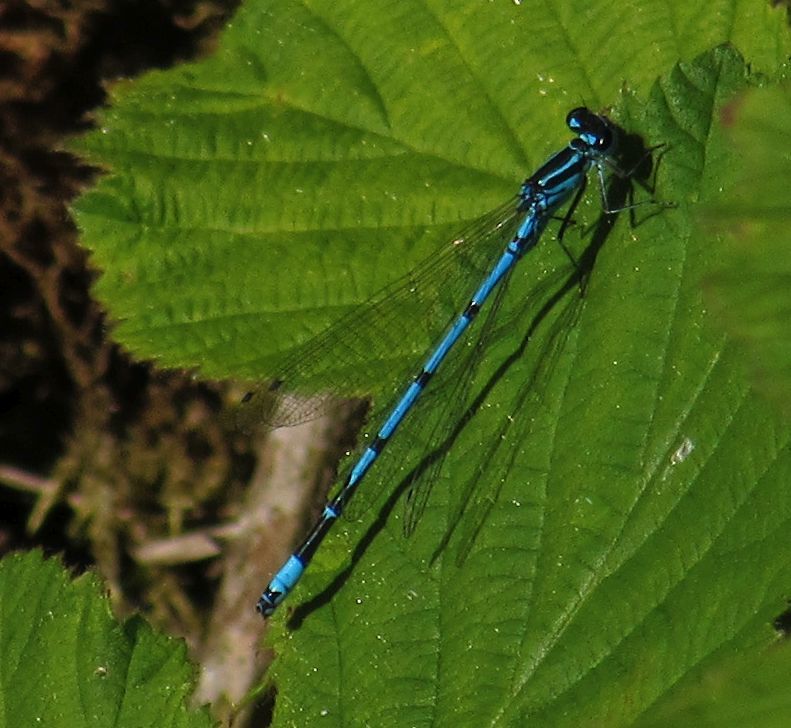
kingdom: Animalia
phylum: Arthropoda
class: Insecta
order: Odonata
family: Coenagrionidae
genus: Coenagrion
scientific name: Coenagrion puella
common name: Azure damselfly
